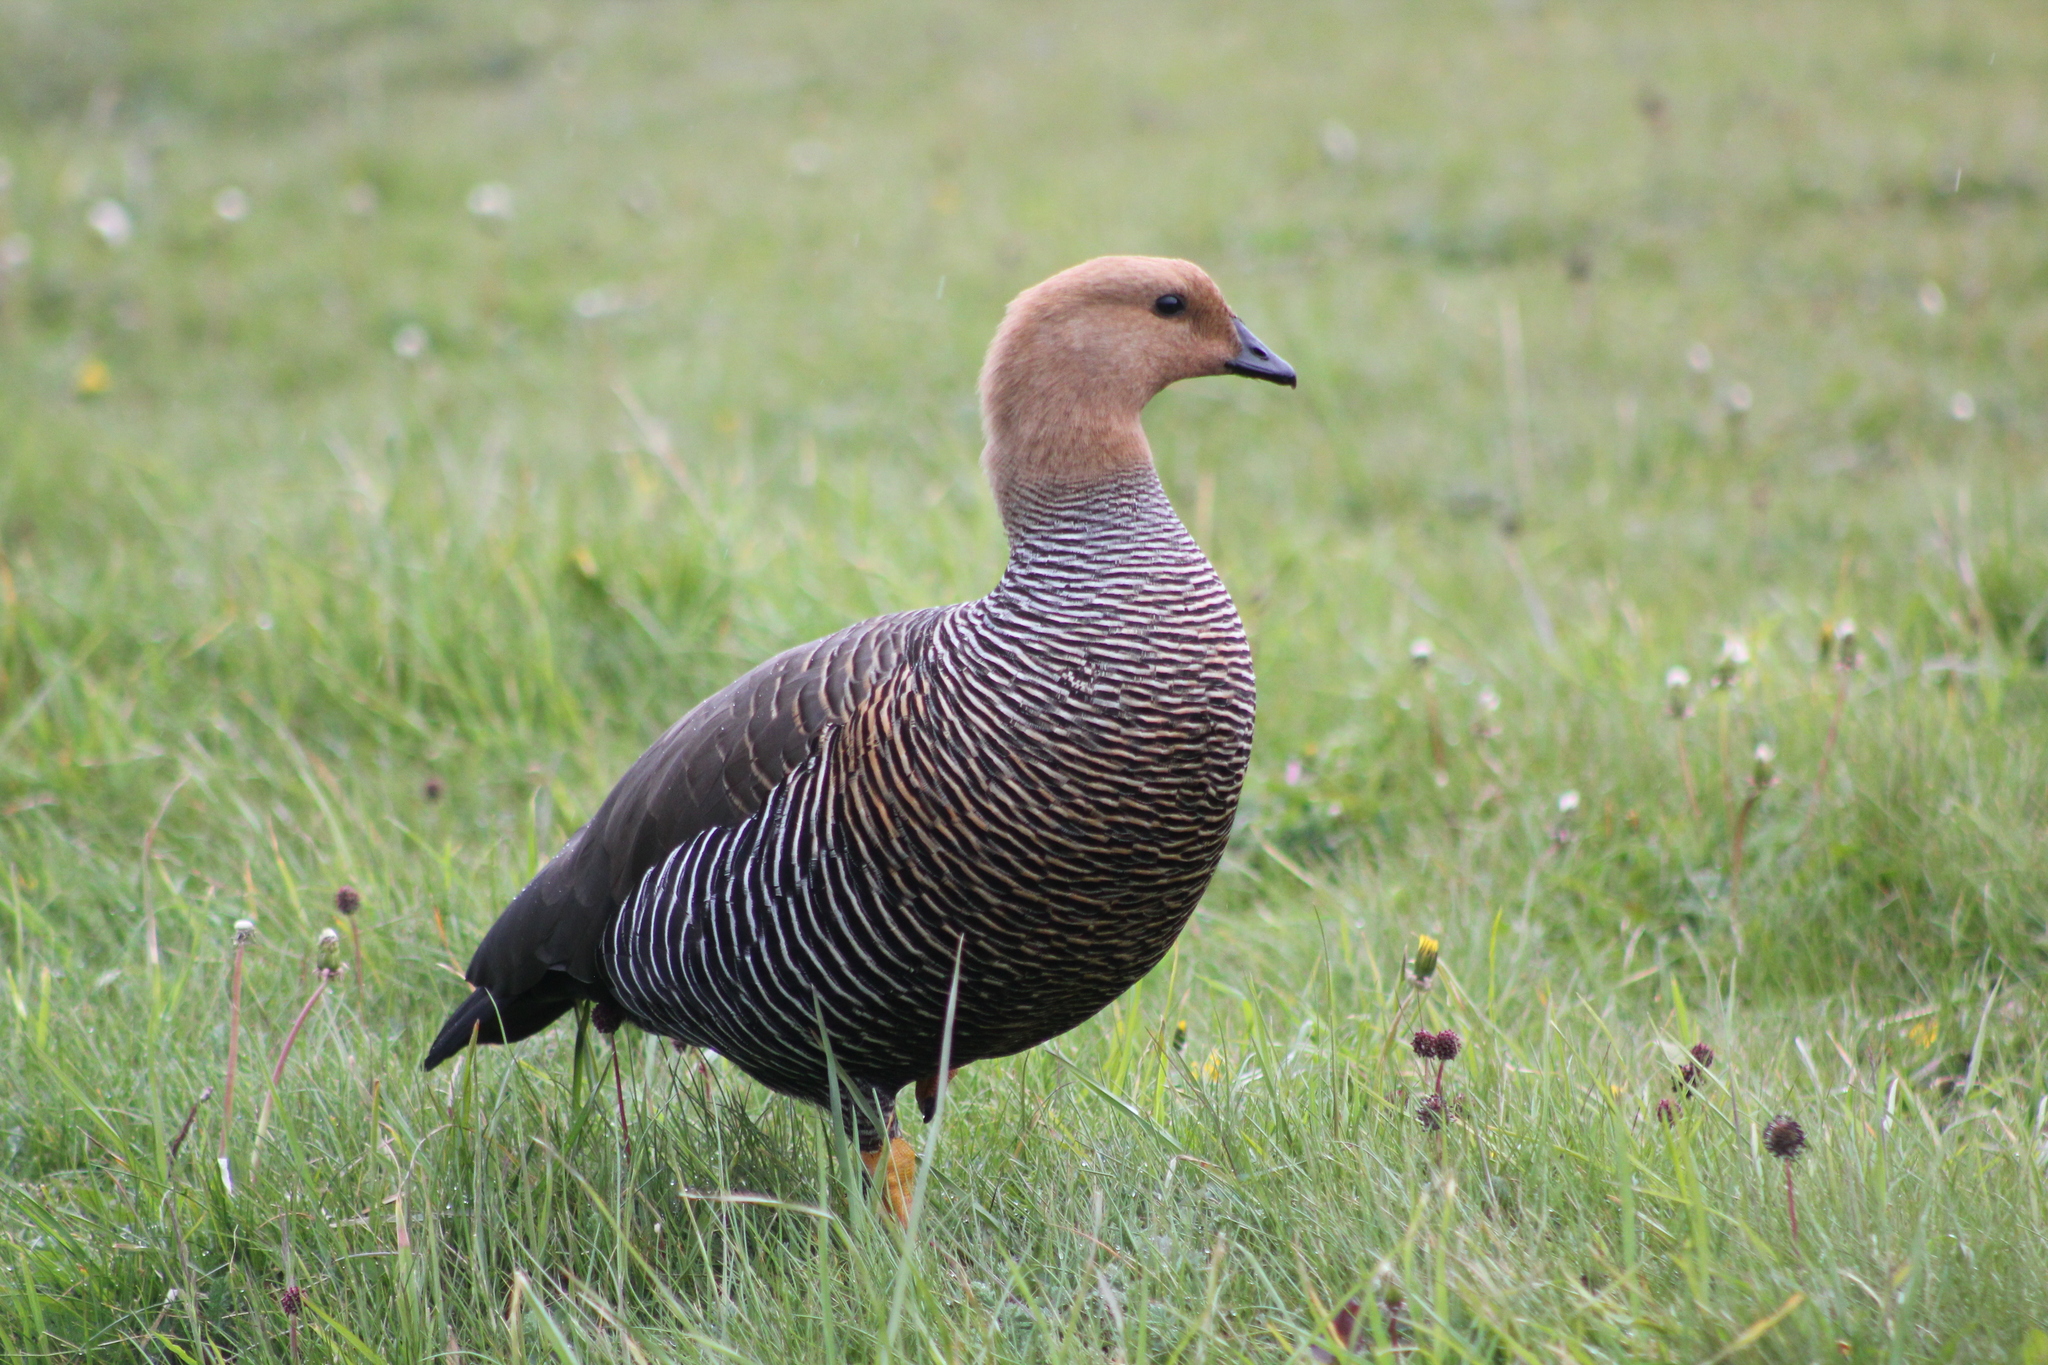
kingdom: Animalia
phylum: Chordata
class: Aves
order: Anseriformes
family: Anatidae
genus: Chloephaga
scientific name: Chloephaga picta
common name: Upland goose
